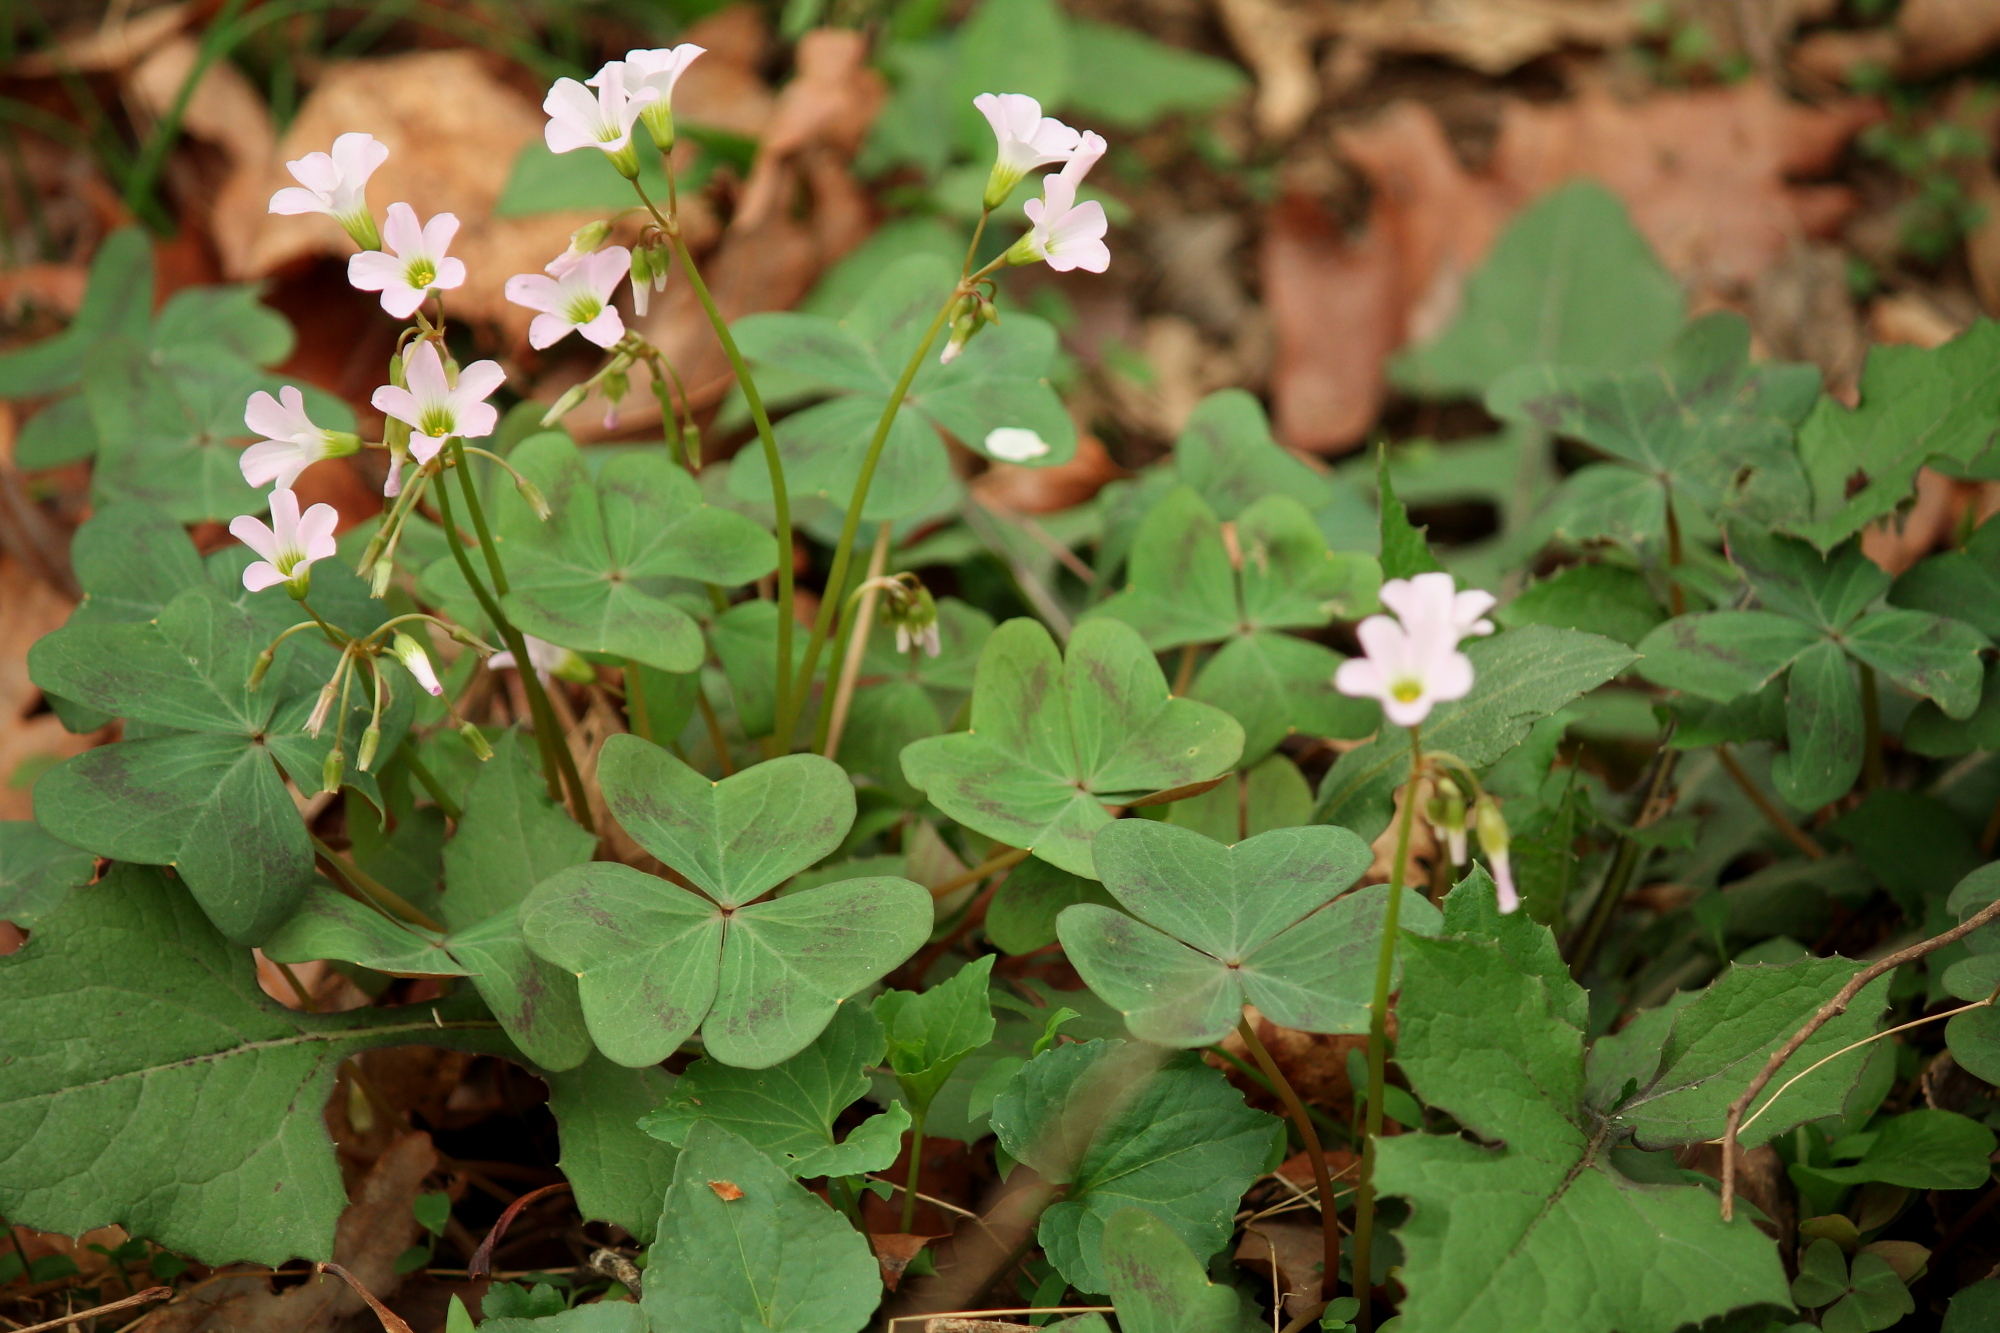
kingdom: Plantae
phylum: Tracheophyta
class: Magnoliopsida
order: Oxalidales
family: Oxalidaceae
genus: Oxalis
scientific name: Oxalis violacea
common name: Violet wood-sorrel
